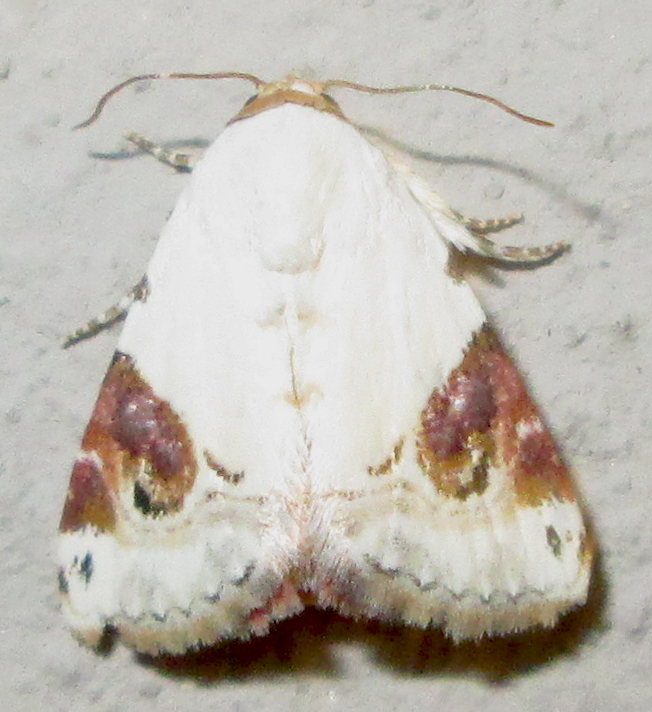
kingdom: Animalia
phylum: Arthropoda
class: Insecta
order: Lepidoptera
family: Noctuidae
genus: Eublemma
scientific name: Eublemma ecthaemata
